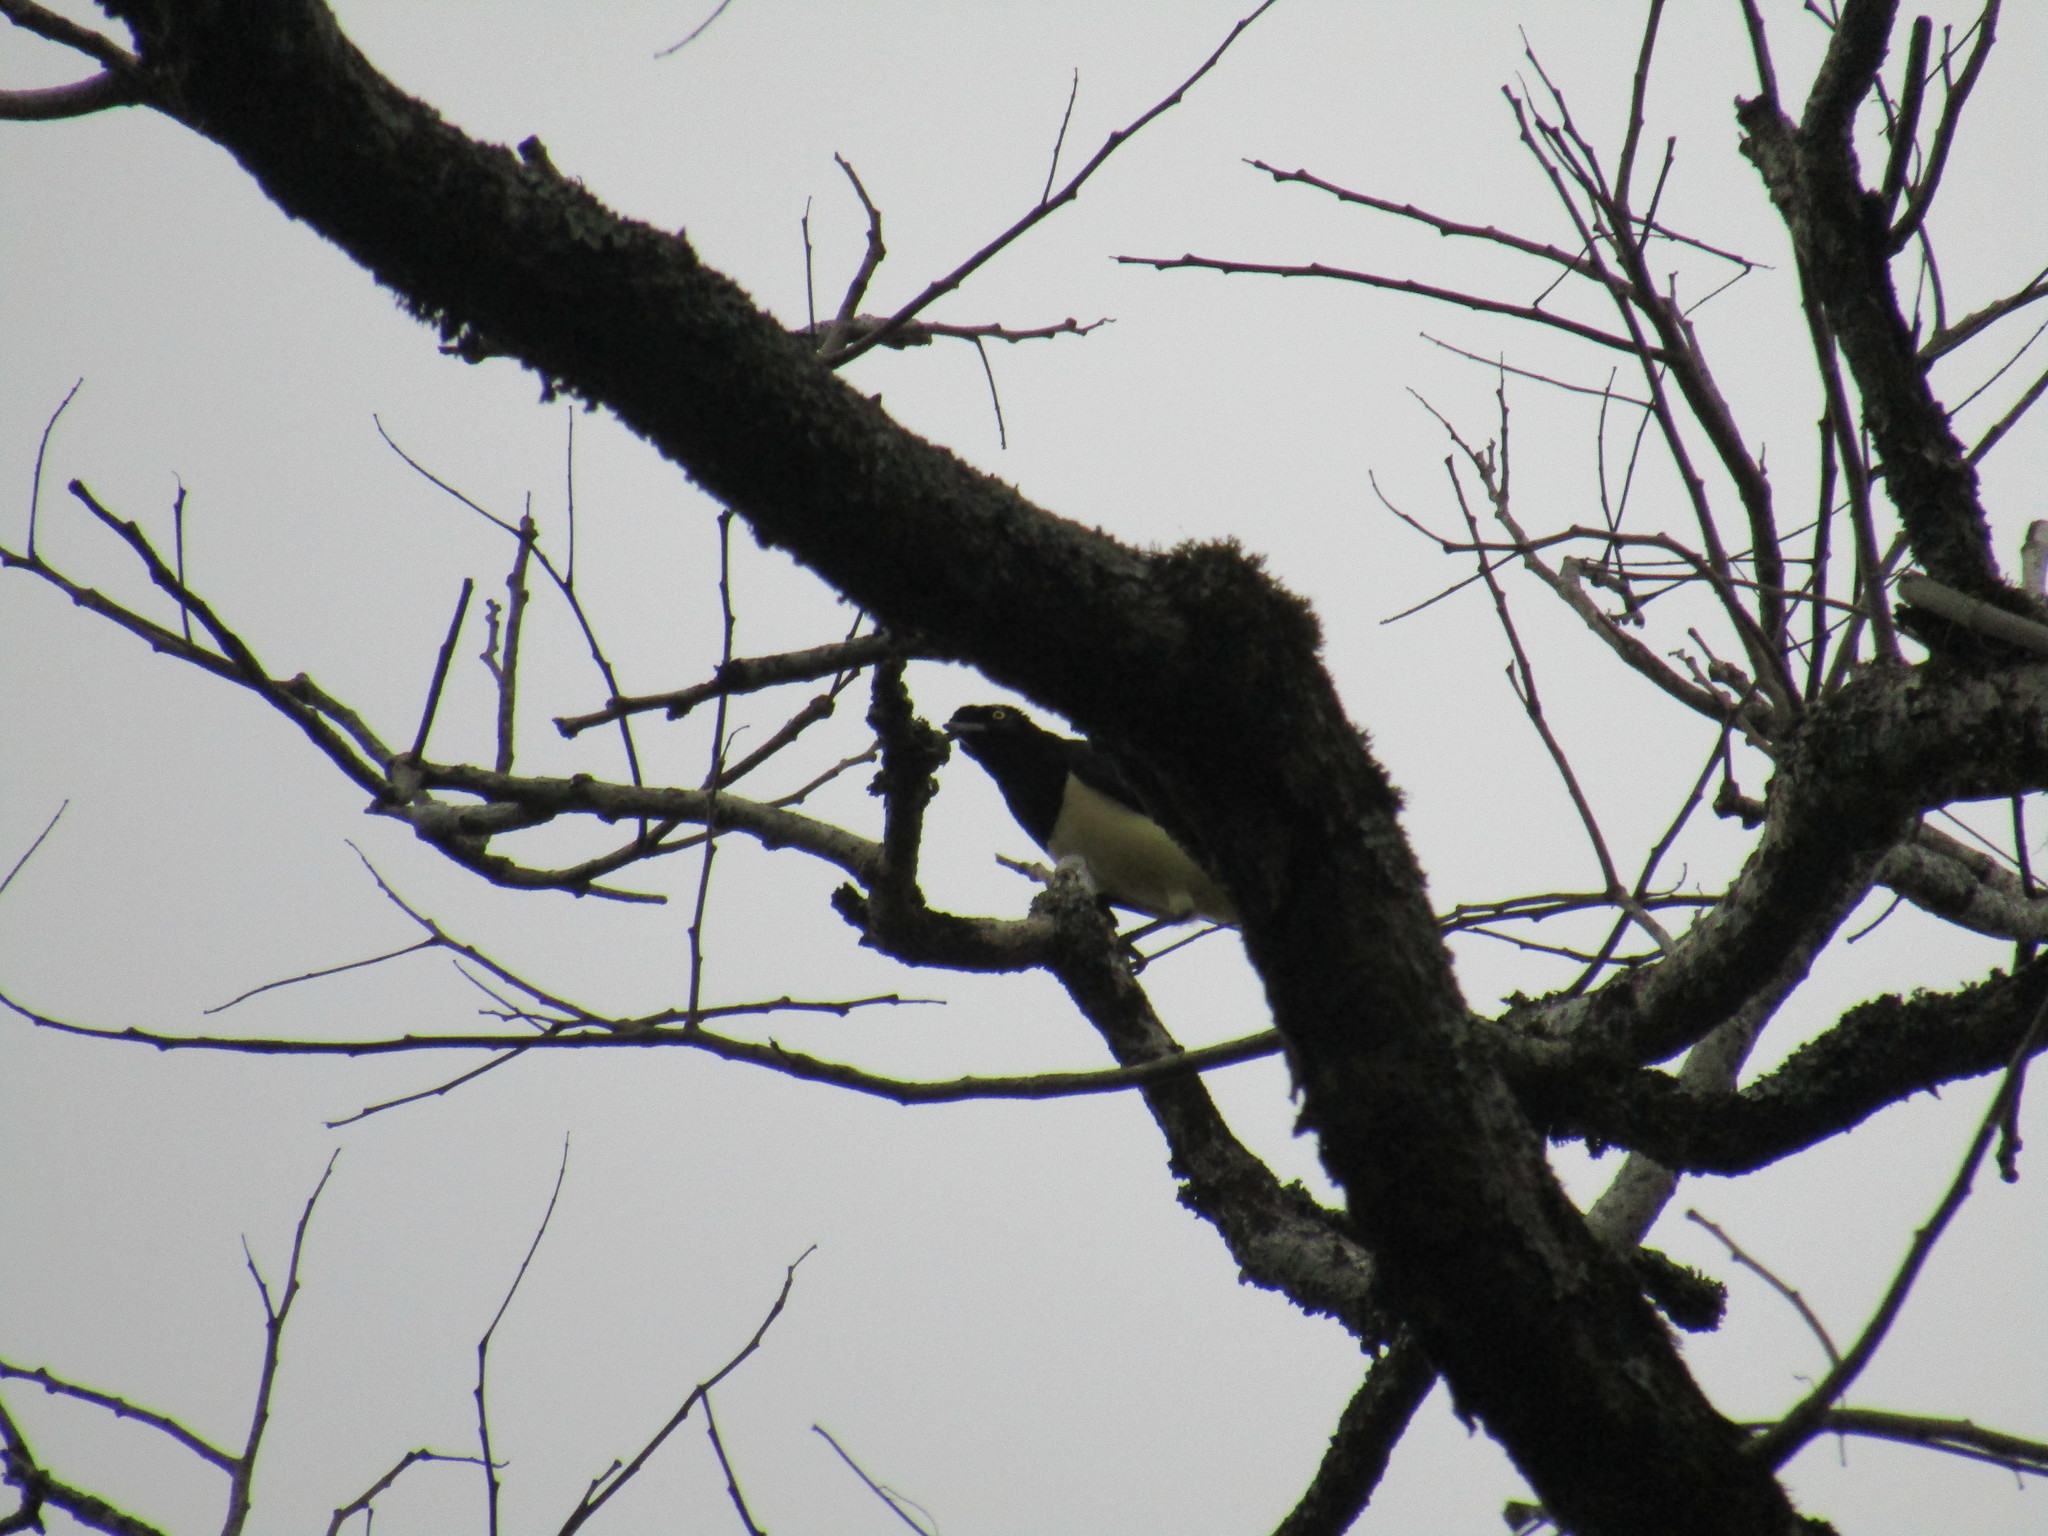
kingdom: Animalia
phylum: Chordata
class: Aves
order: Passeriformes
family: Corvidae
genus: Cyanocorax
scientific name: Cyanocorax chrysops
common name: Plush-crested jay
